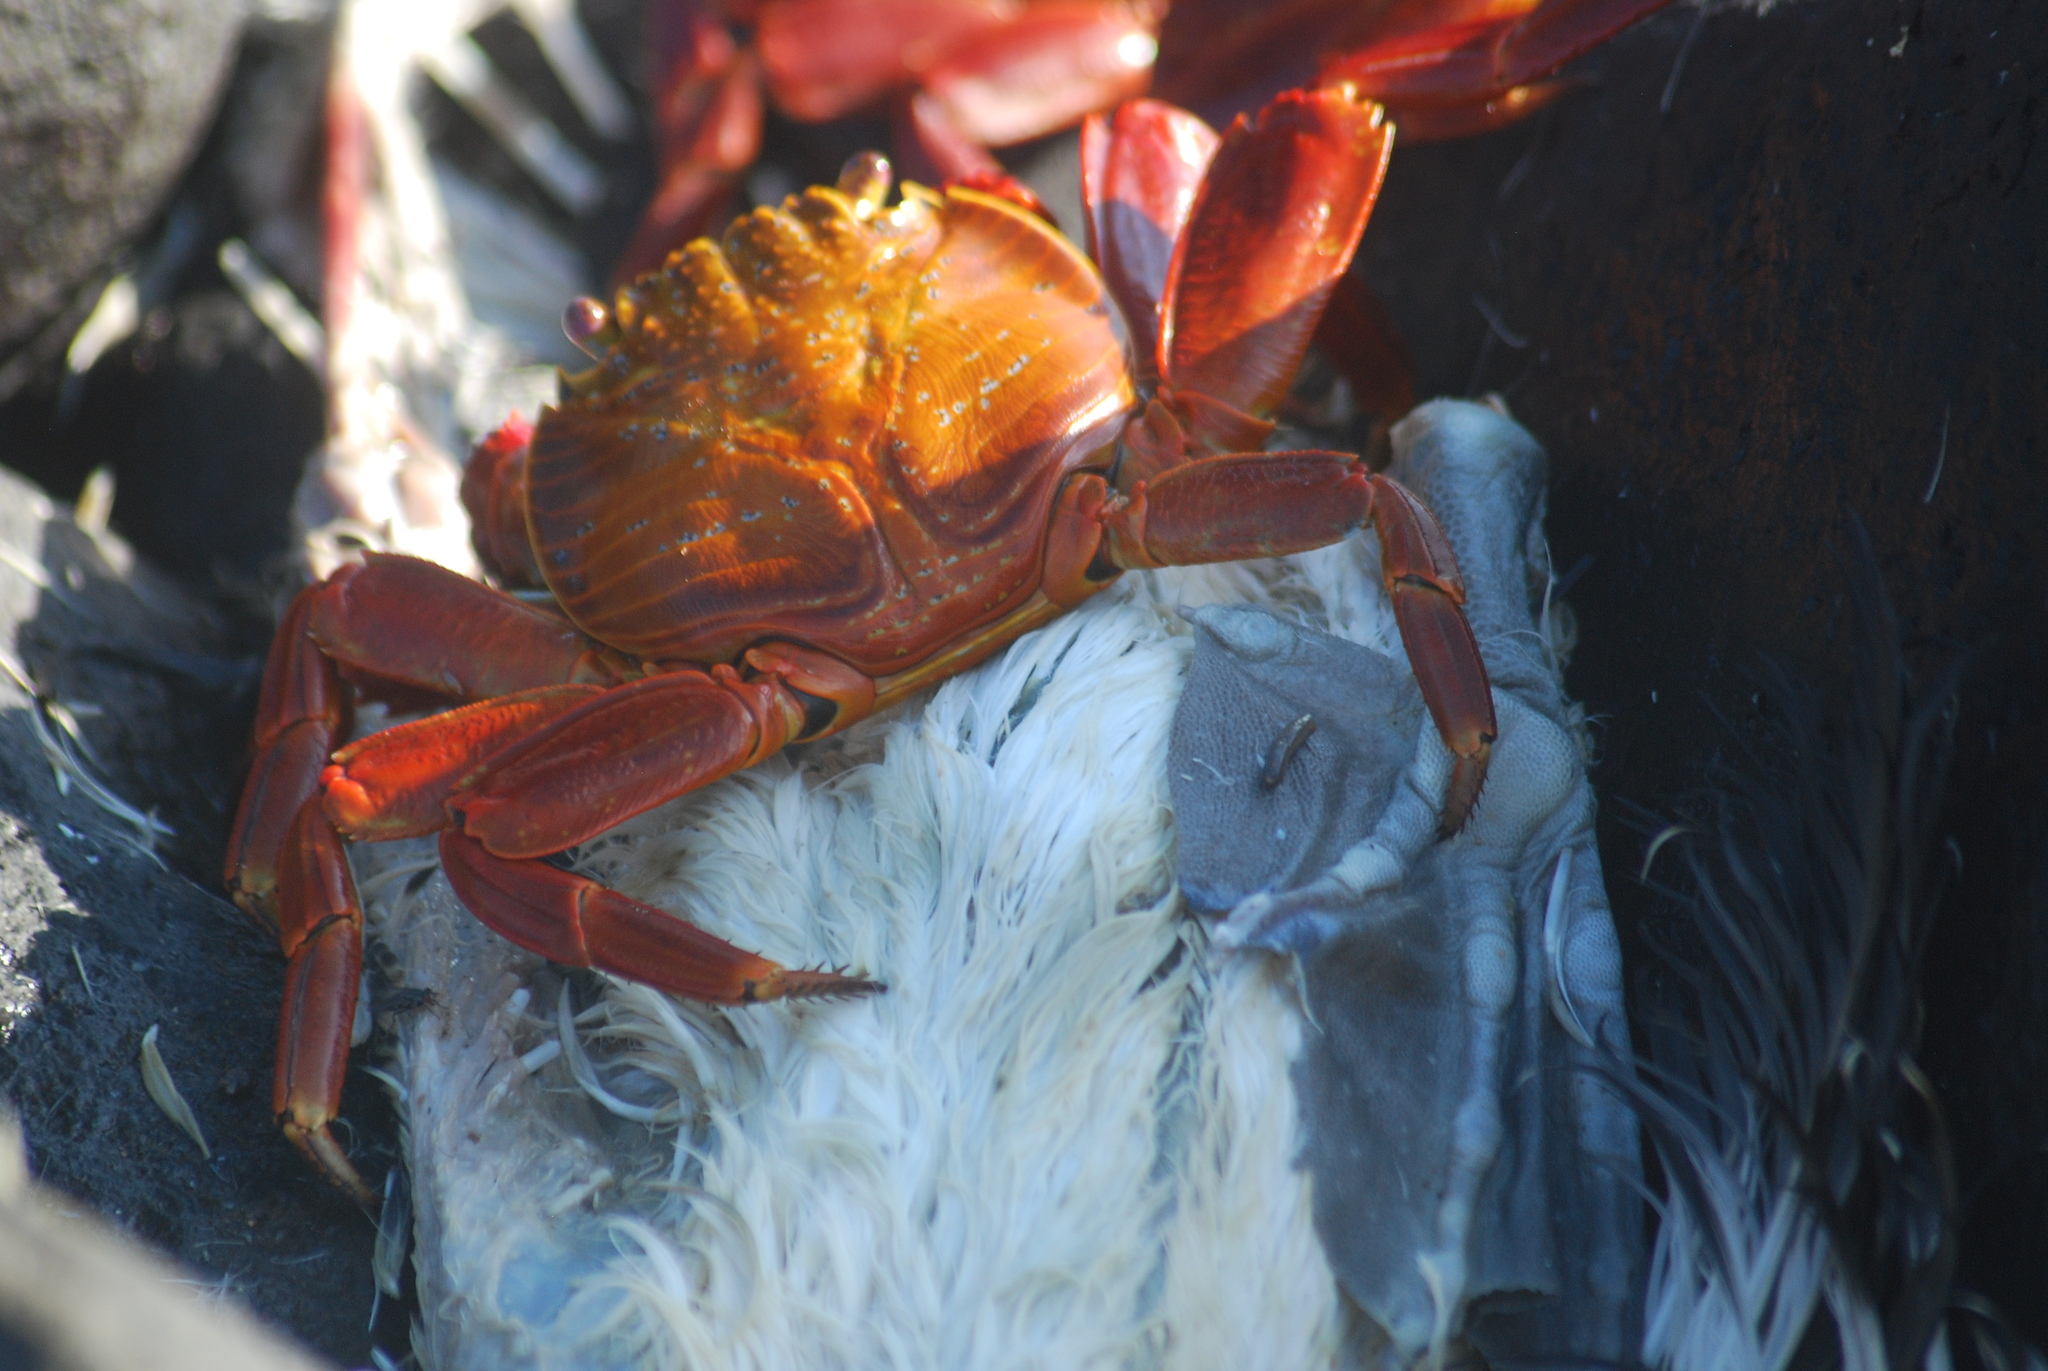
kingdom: Animalia
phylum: Arthropoda
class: Malacostraca
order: Decapoda
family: Grapsidae
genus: Grapsus
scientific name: Grapsus grapsus
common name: Sally lightfoot
